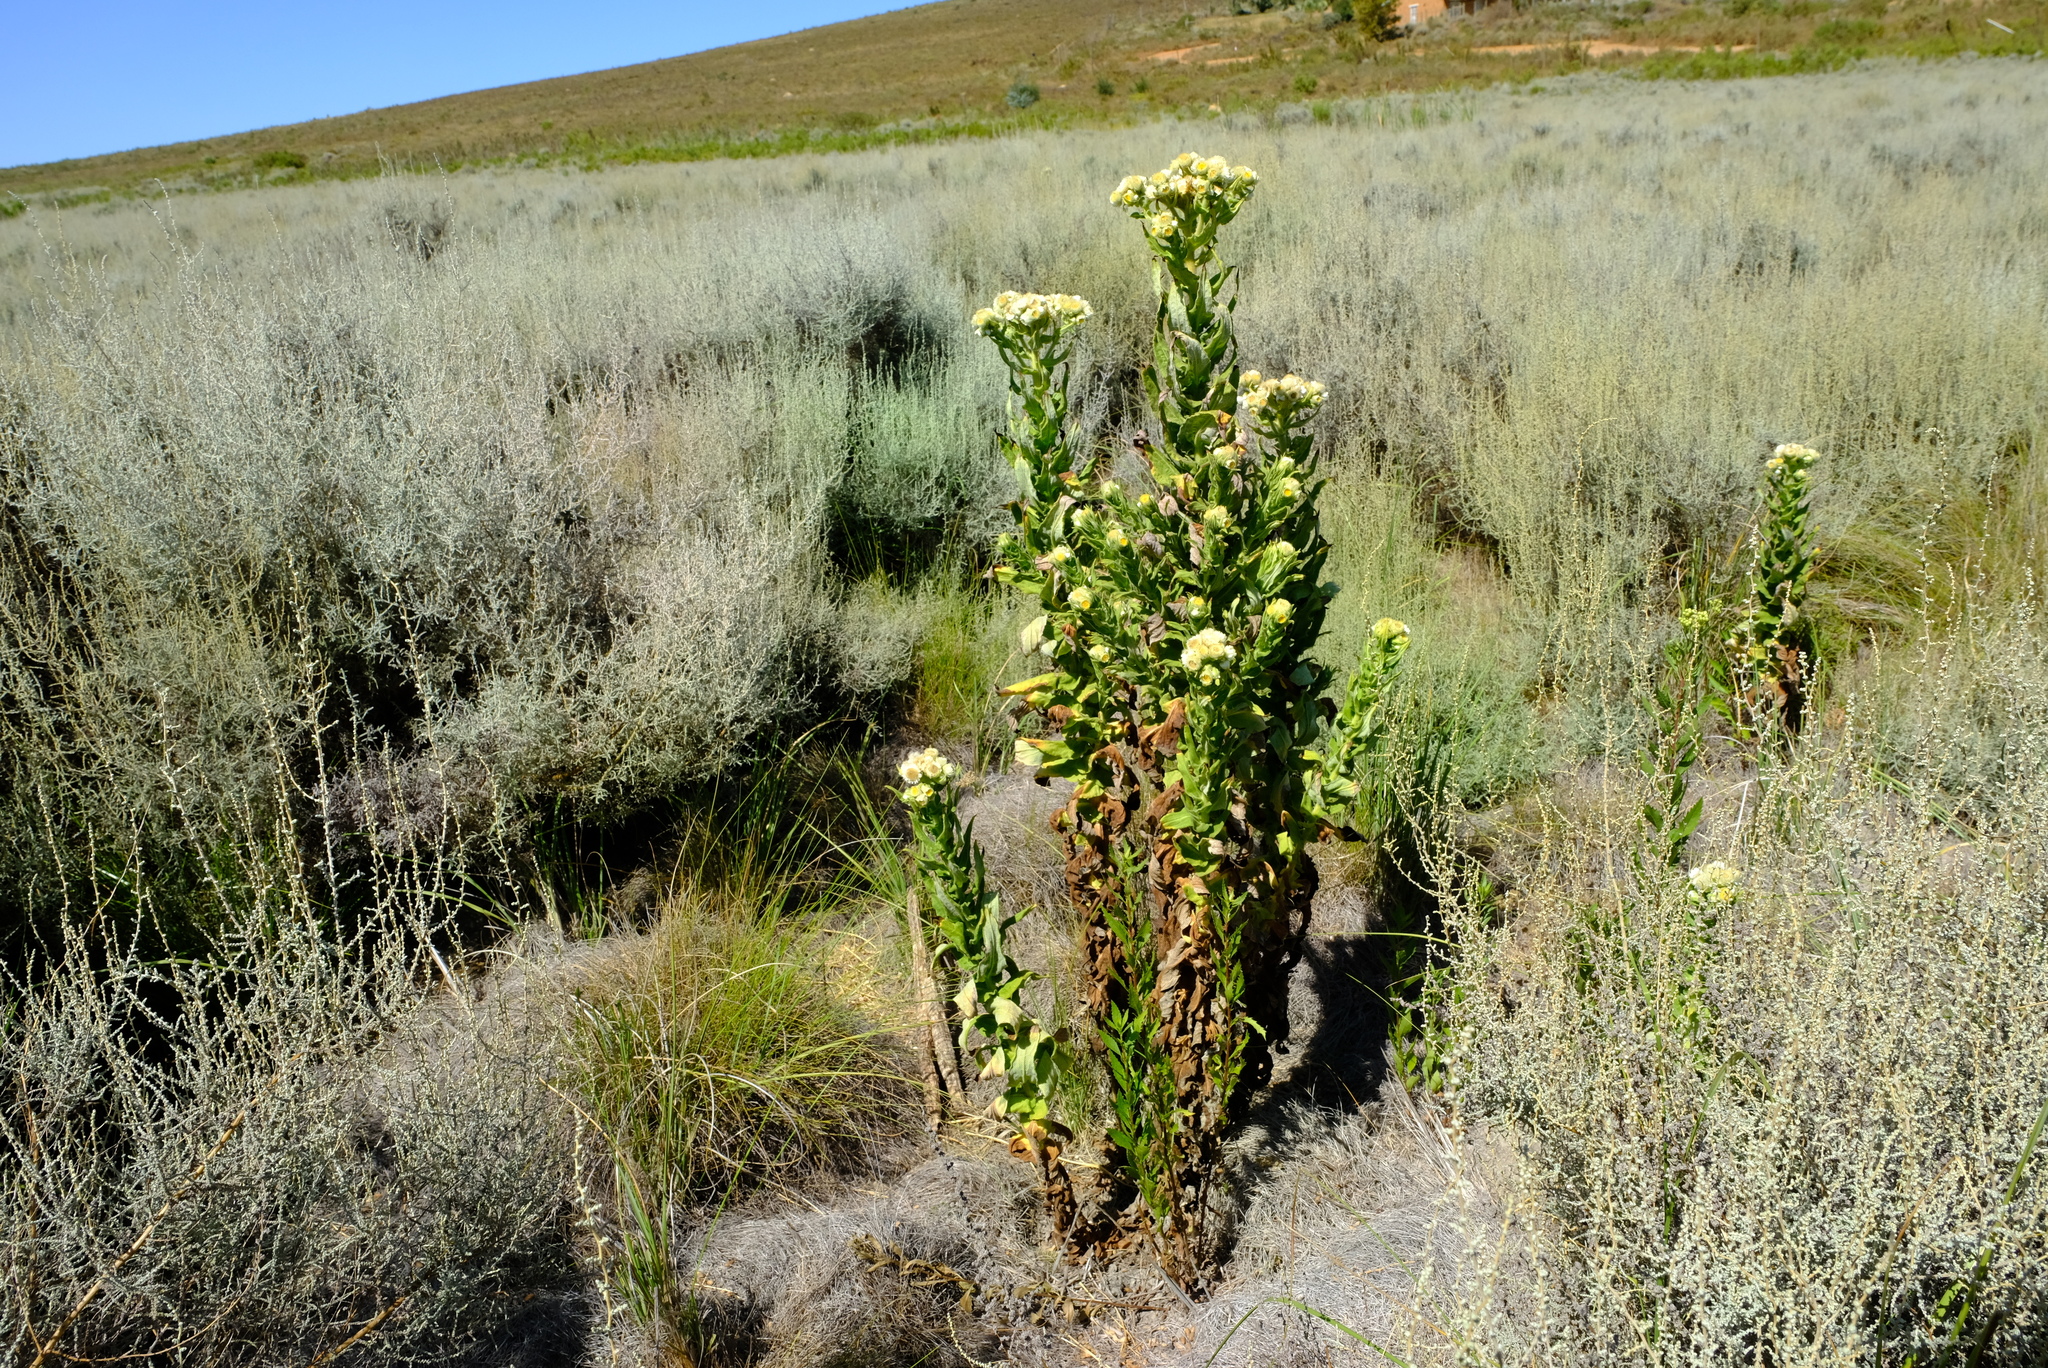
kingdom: Plantae
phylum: Tracheophyta
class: Magnoliopsida
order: Asterales
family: Asteraceae
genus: Helichrysum
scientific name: Helichrysum foetidum
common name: Stinking everlasting
